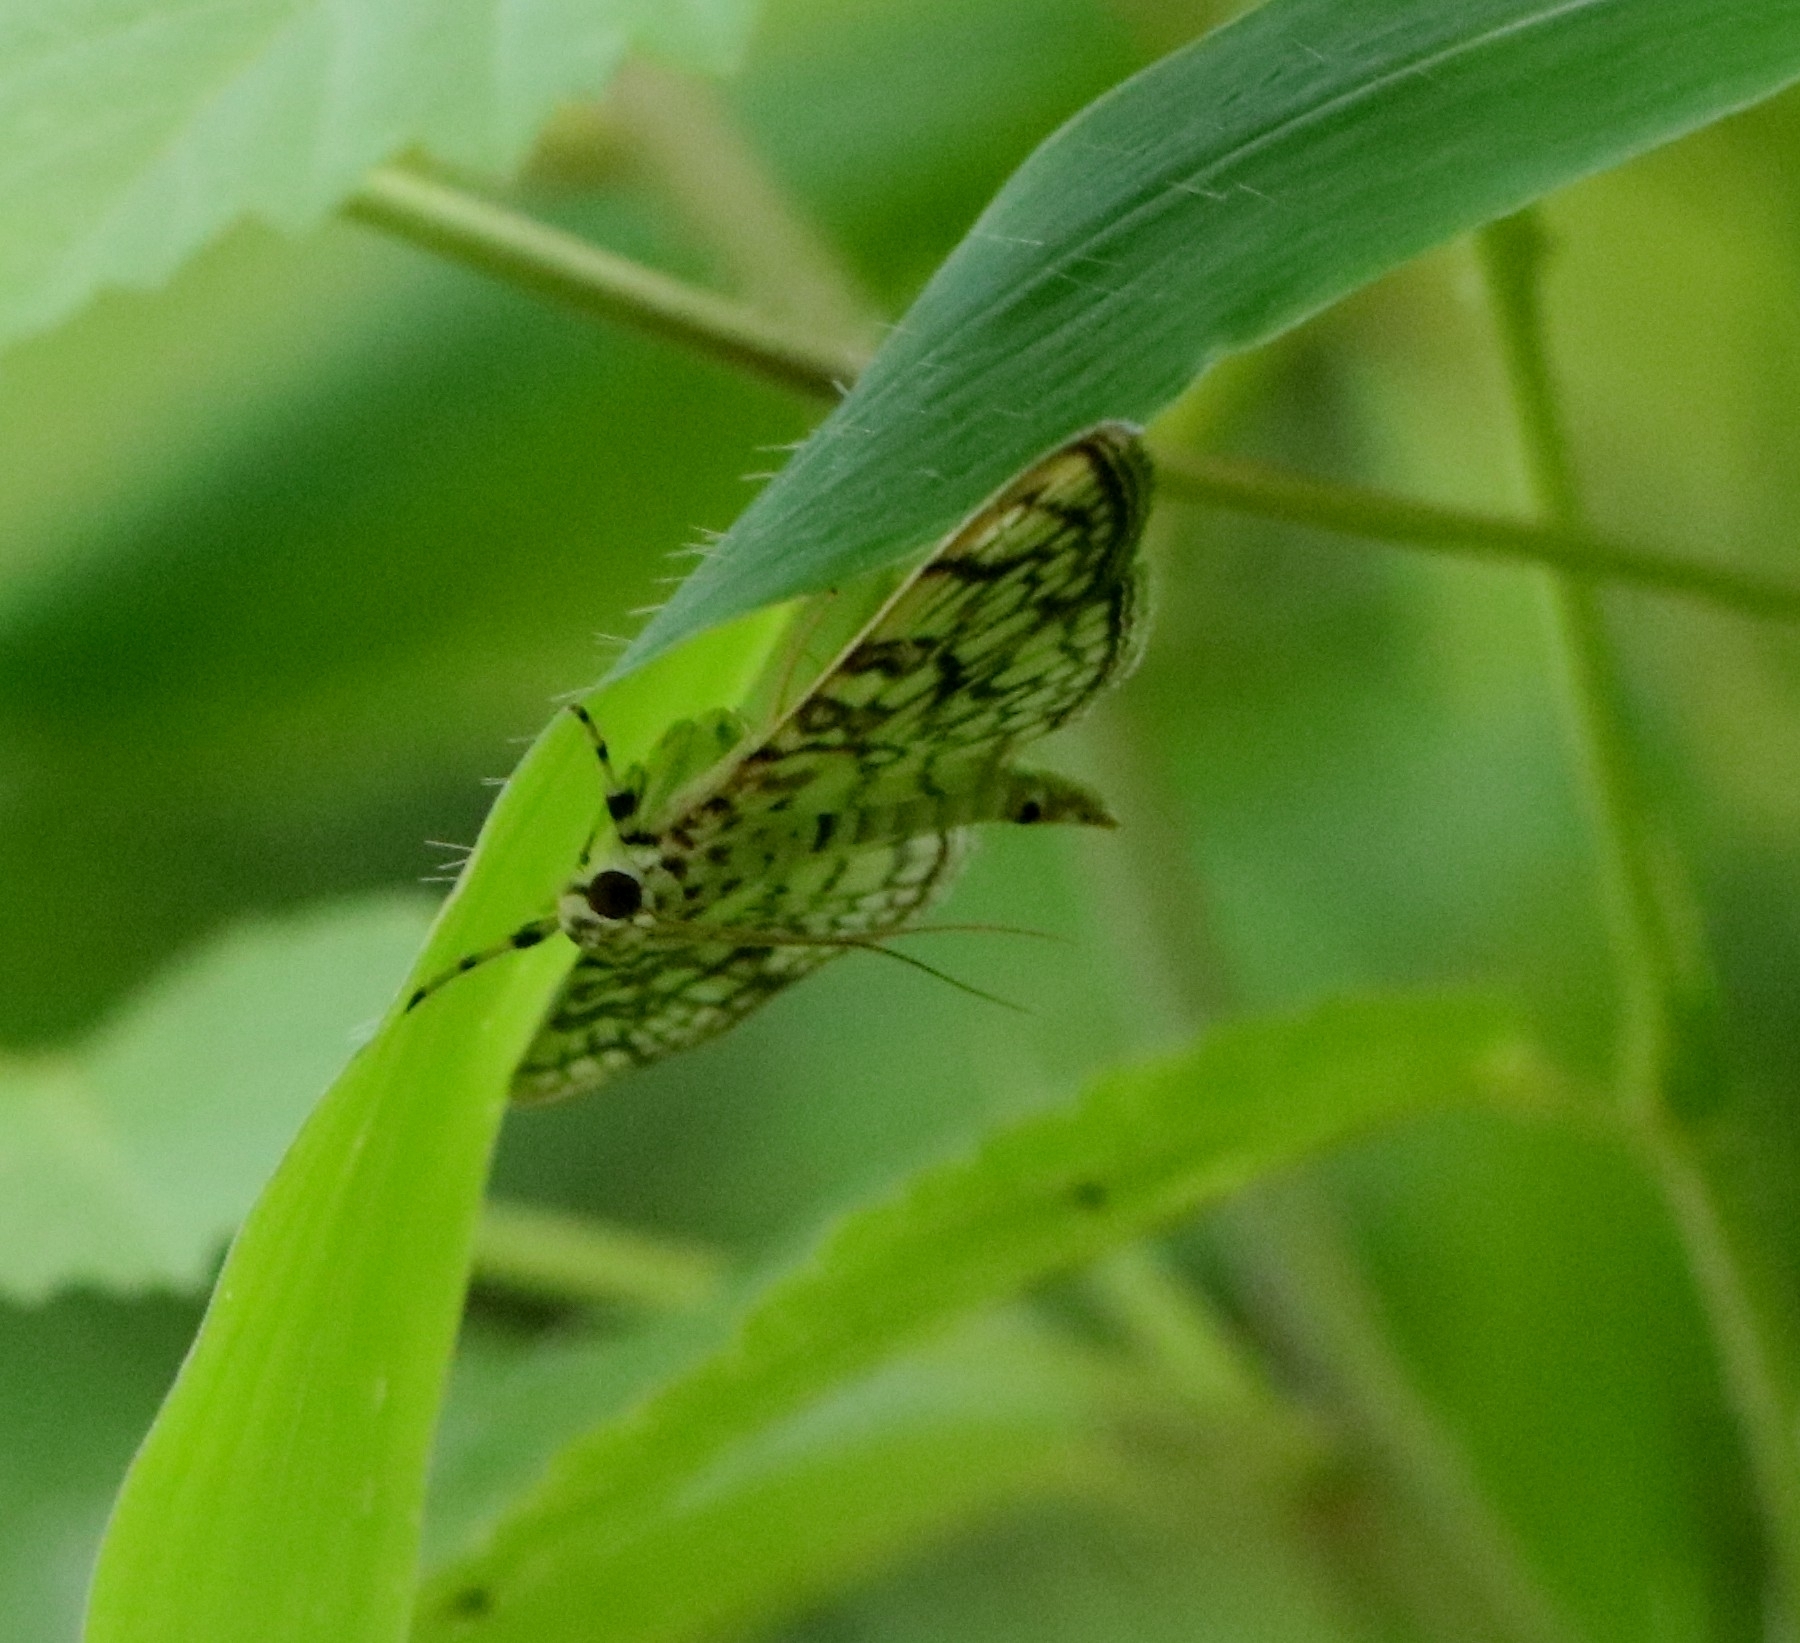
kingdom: Animalia
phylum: Arthropoda
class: Insecta
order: Lepidoptera
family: Crambidae
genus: Haritalodes
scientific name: Haritalodes derogata
